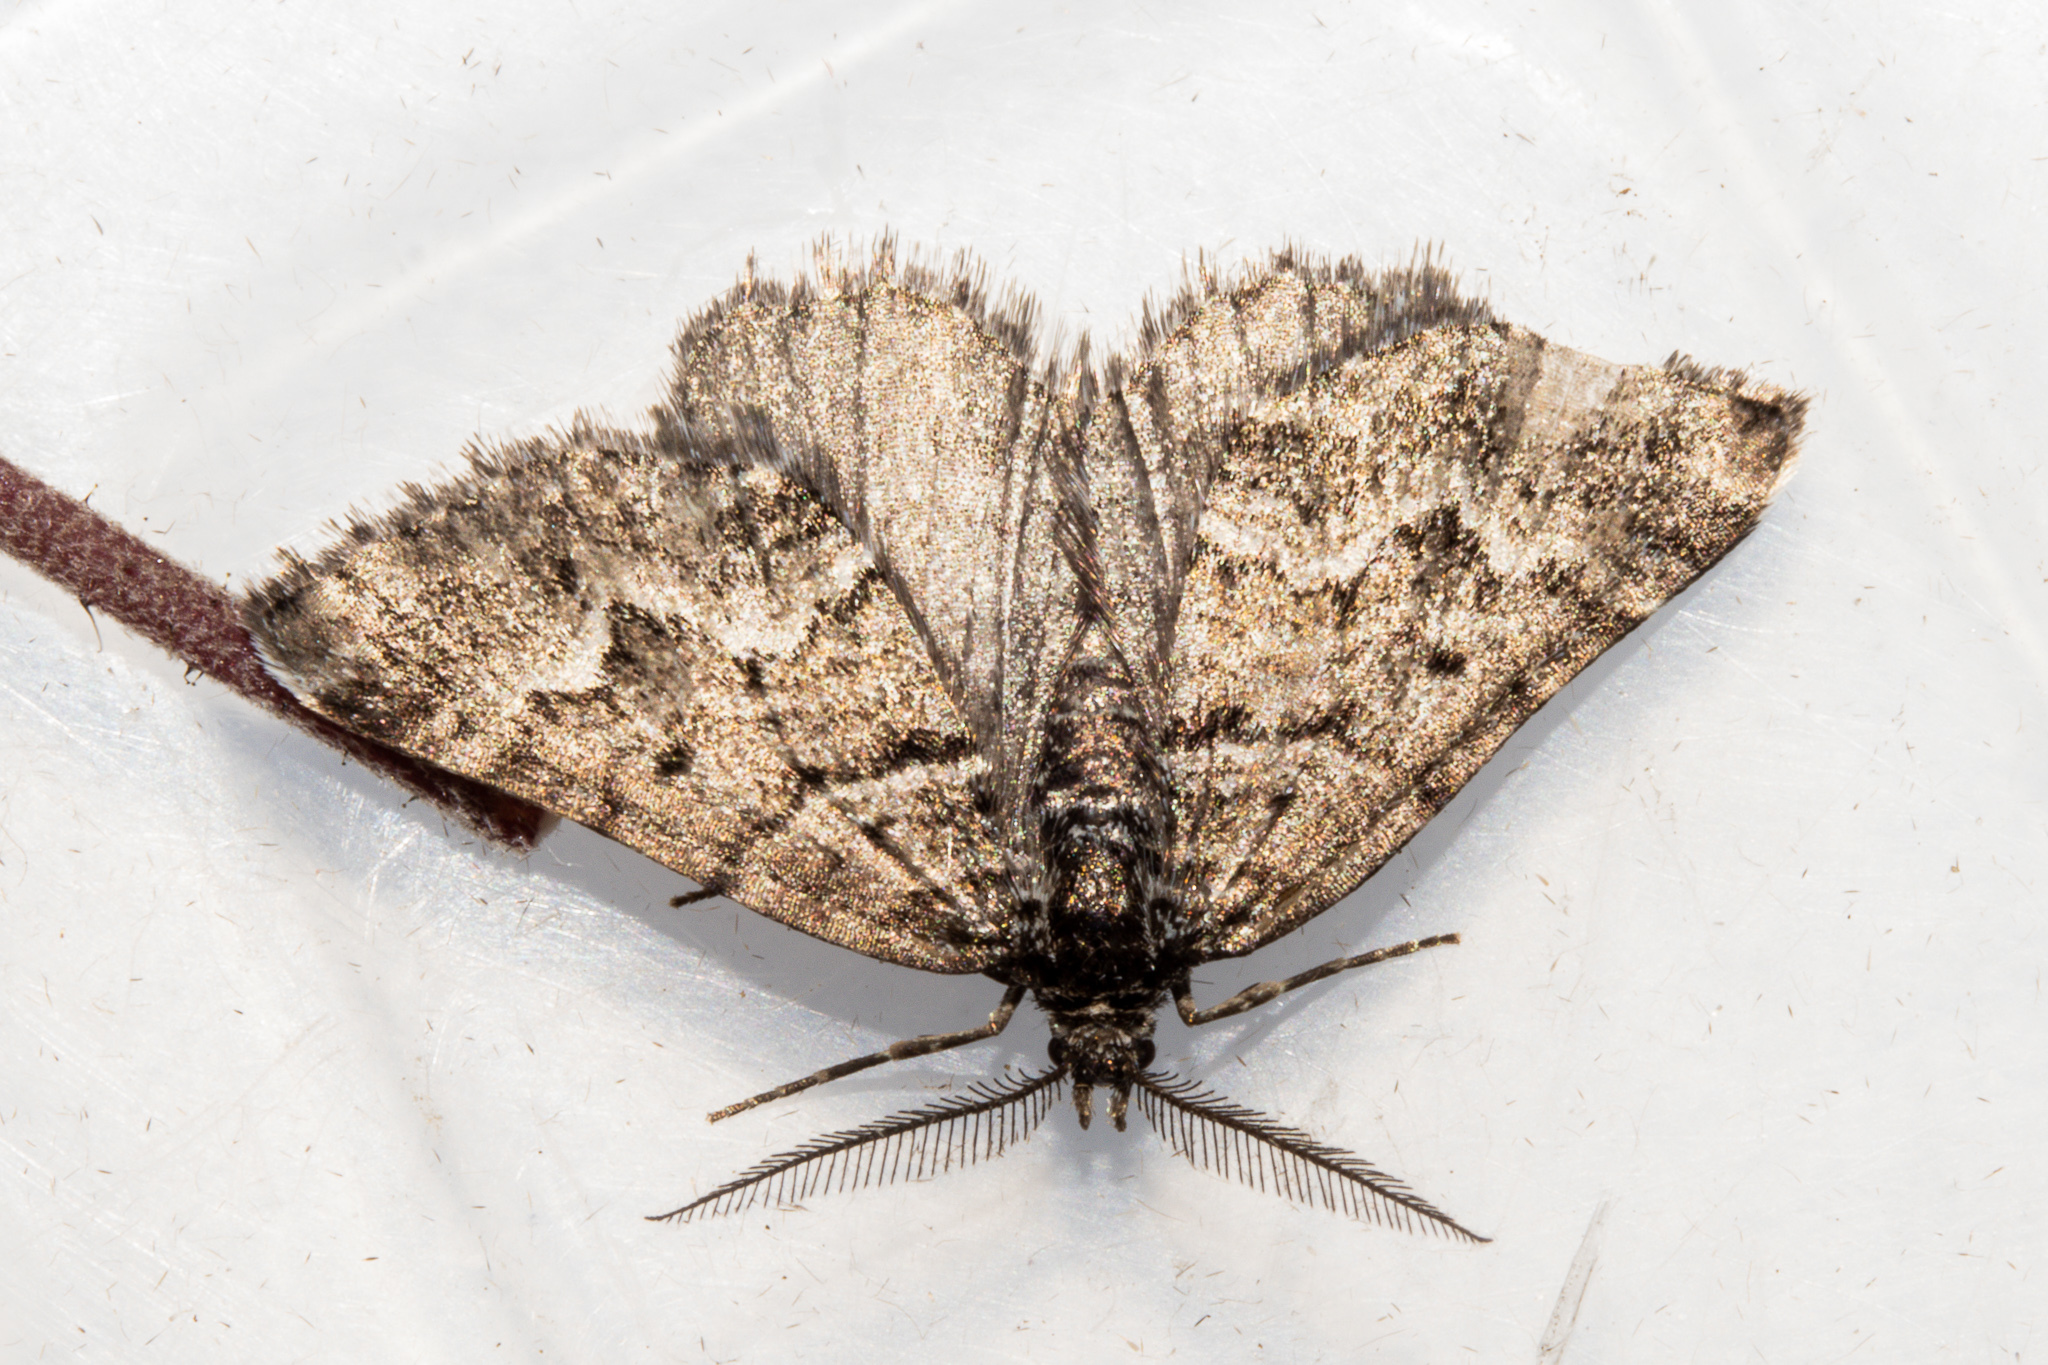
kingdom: Animalia
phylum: Arthropoda
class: Insecta
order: Lepidoptera
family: Geometridae
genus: Aponotoreas
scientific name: Aponotoreas anthracias
